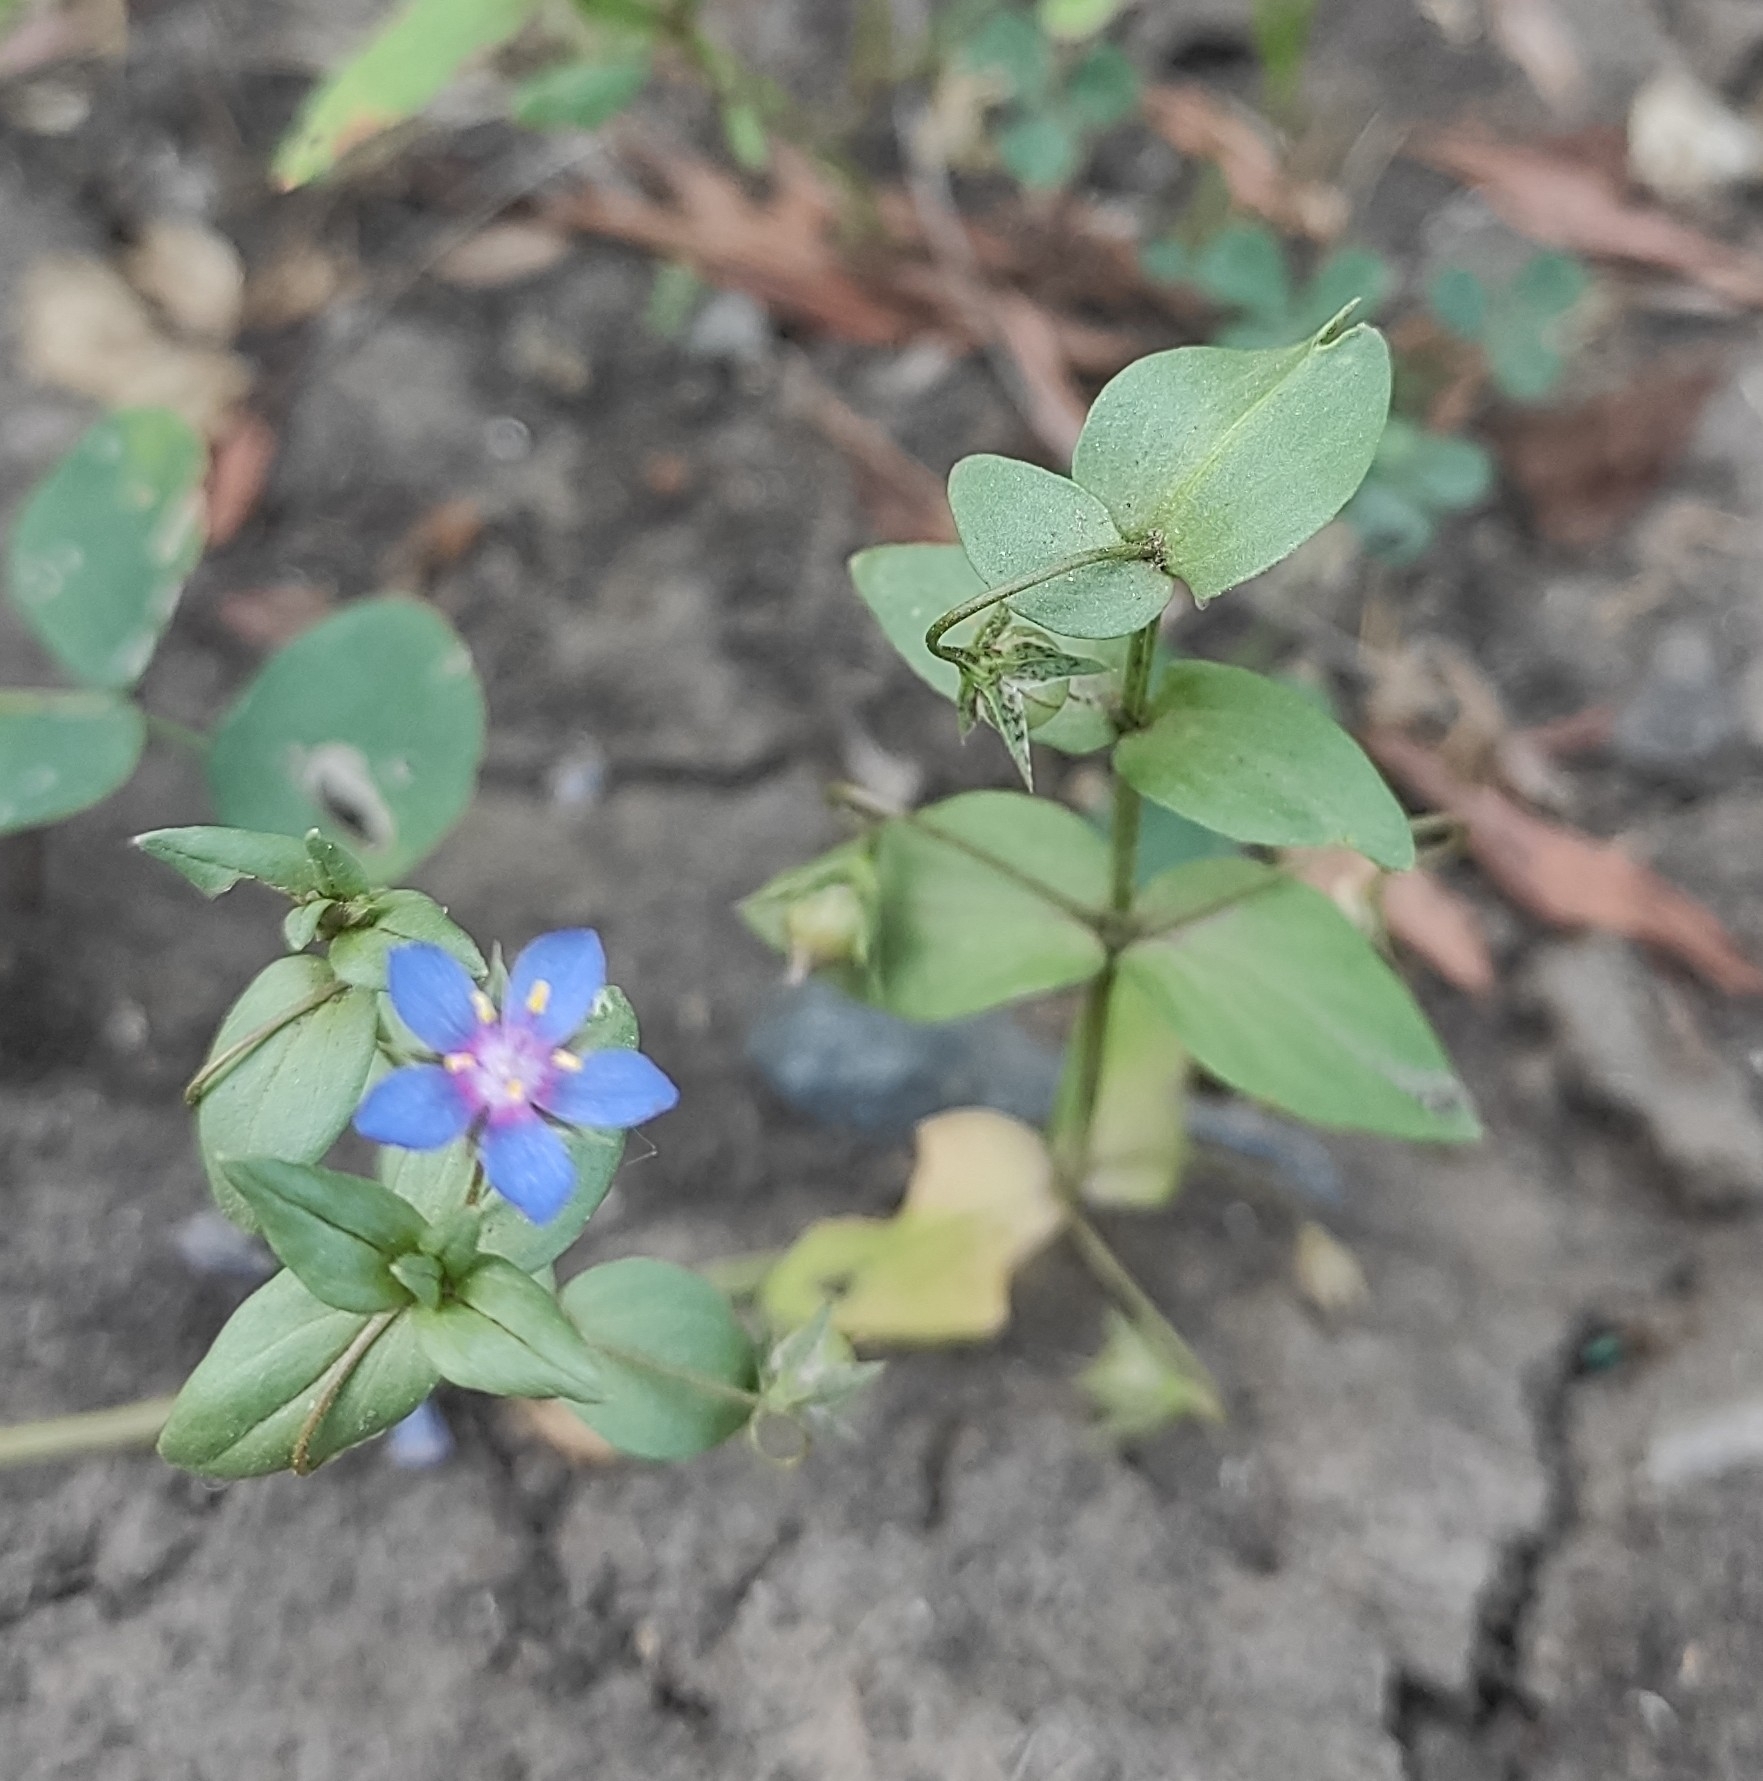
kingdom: Plantae
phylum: Tracheophyta
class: Magnoliopsida
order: Ericales
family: Primulaceae
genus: Lysimachia
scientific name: Lysimachia foemina
